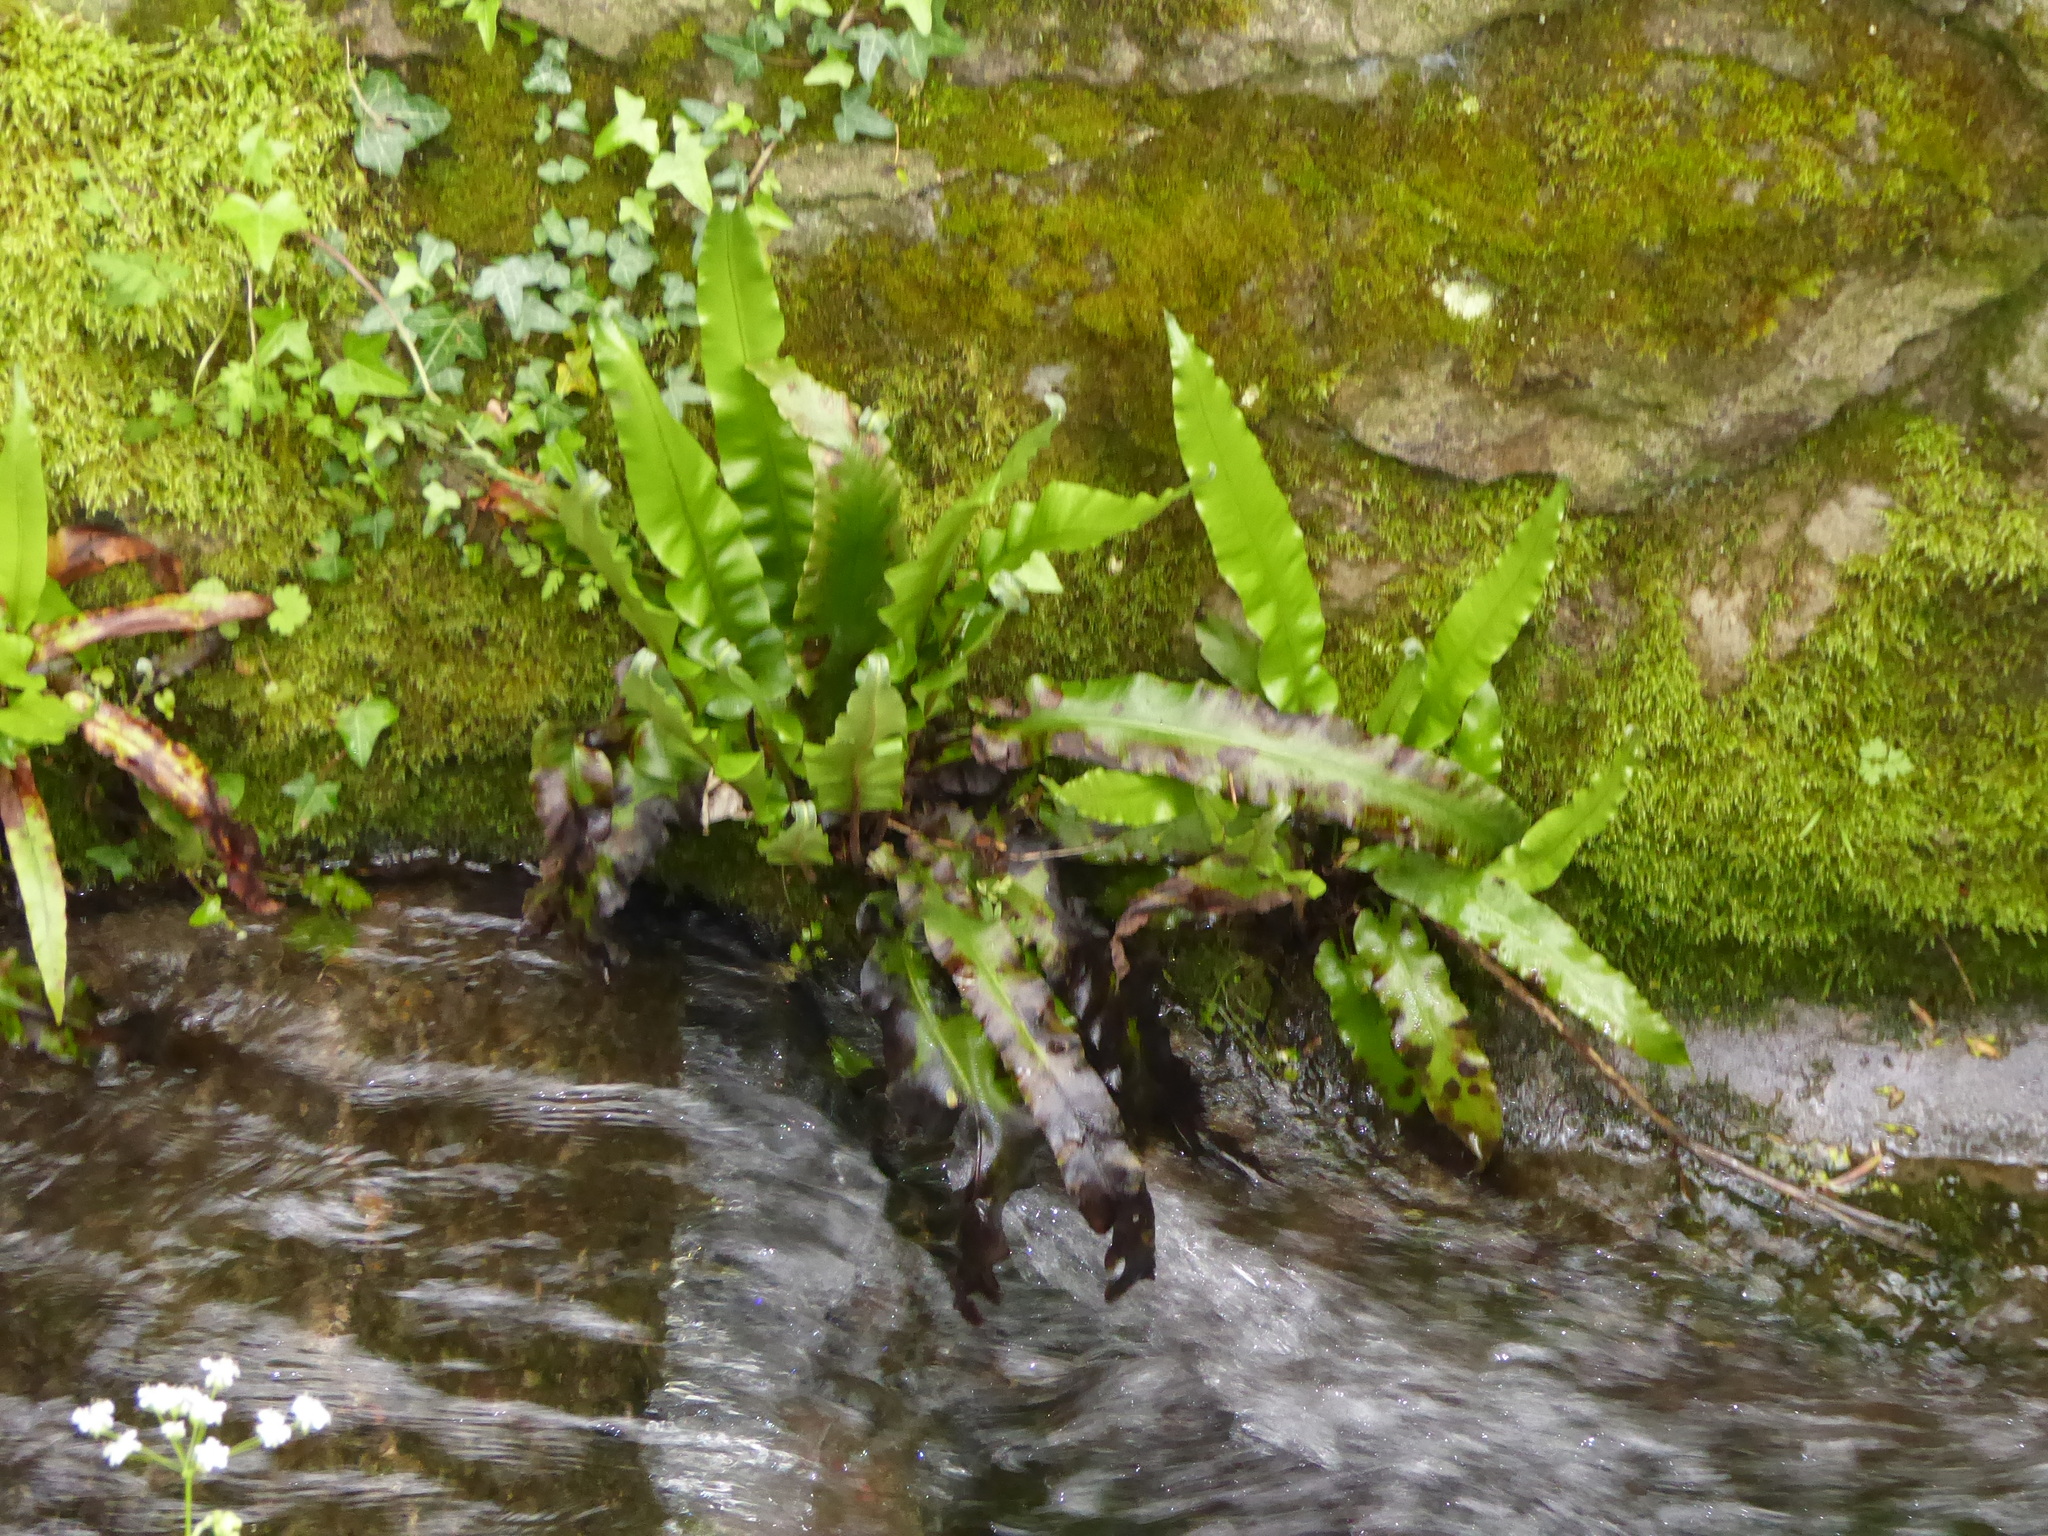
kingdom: Plantae
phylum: Tracheophyta
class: Polypodiopsida
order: Polypodiales
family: Aspleniaceae
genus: Asplenium
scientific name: Asplenium scolopendrium
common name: Hart's-tongue fern
